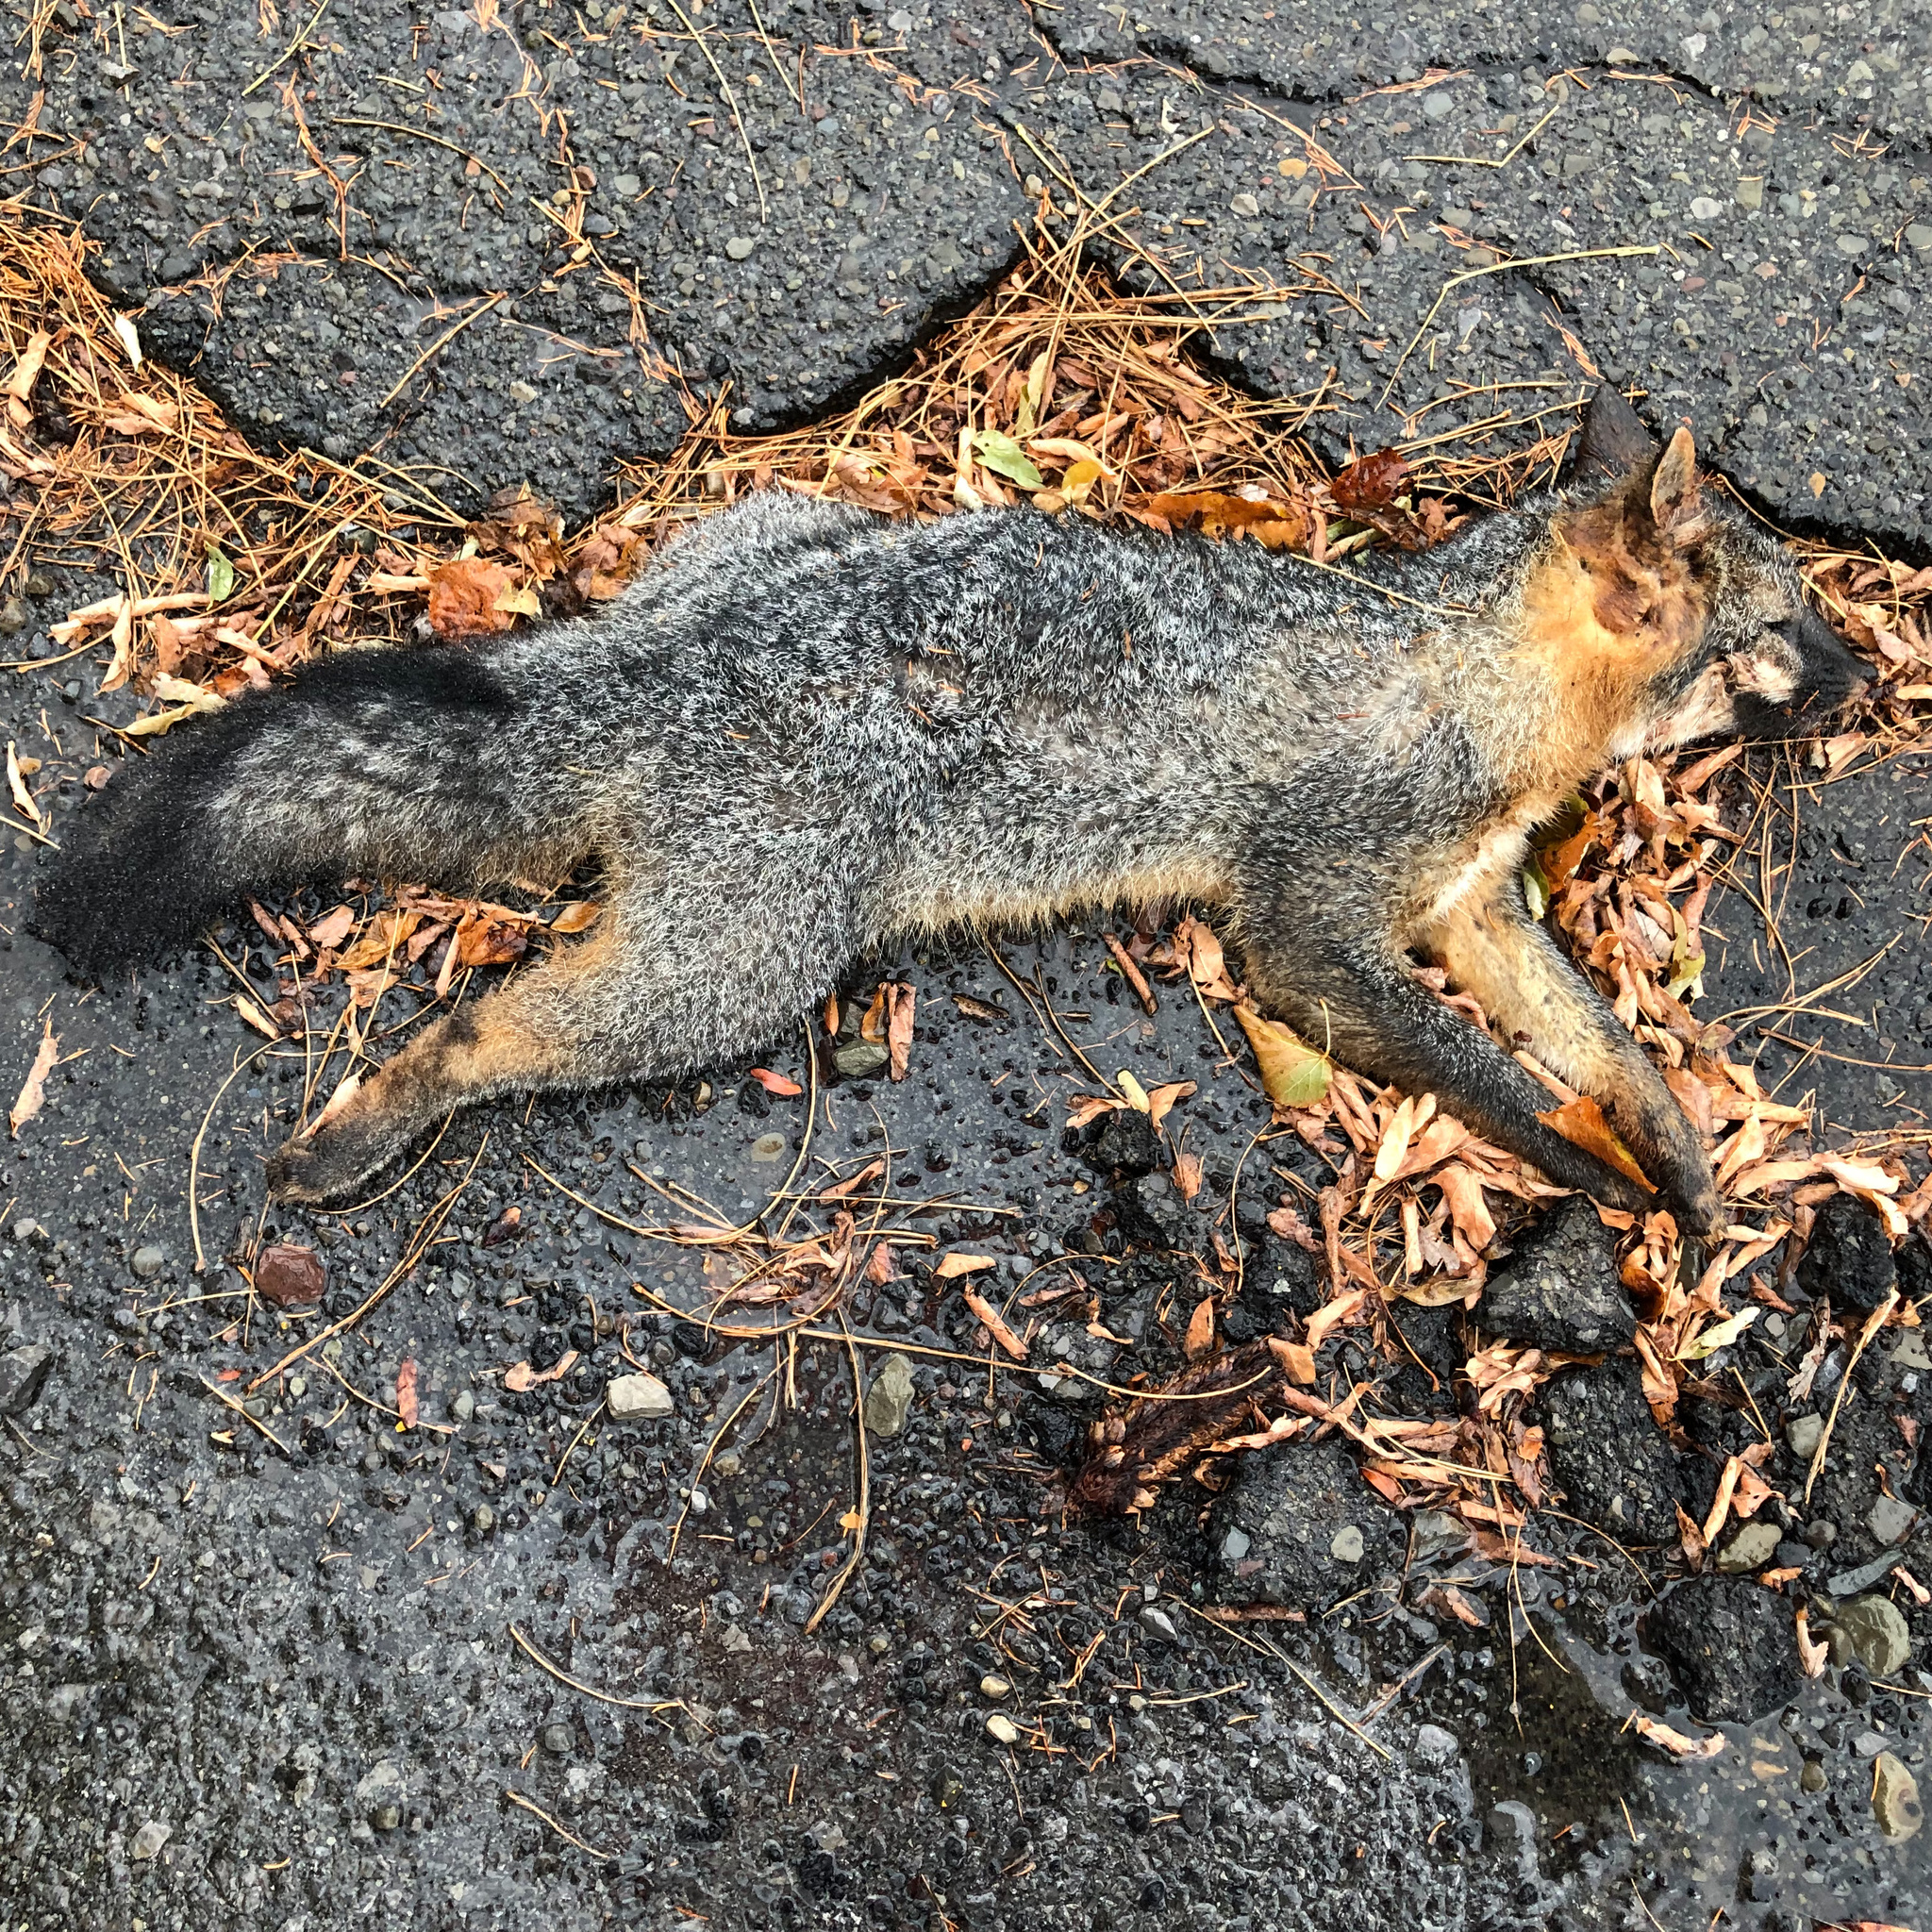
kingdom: Animalia
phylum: Chordata
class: Mammalia
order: Carnivora
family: Canidae
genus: Urocyon
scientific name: Urocyon cinereoargenteus
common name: Gray fox
